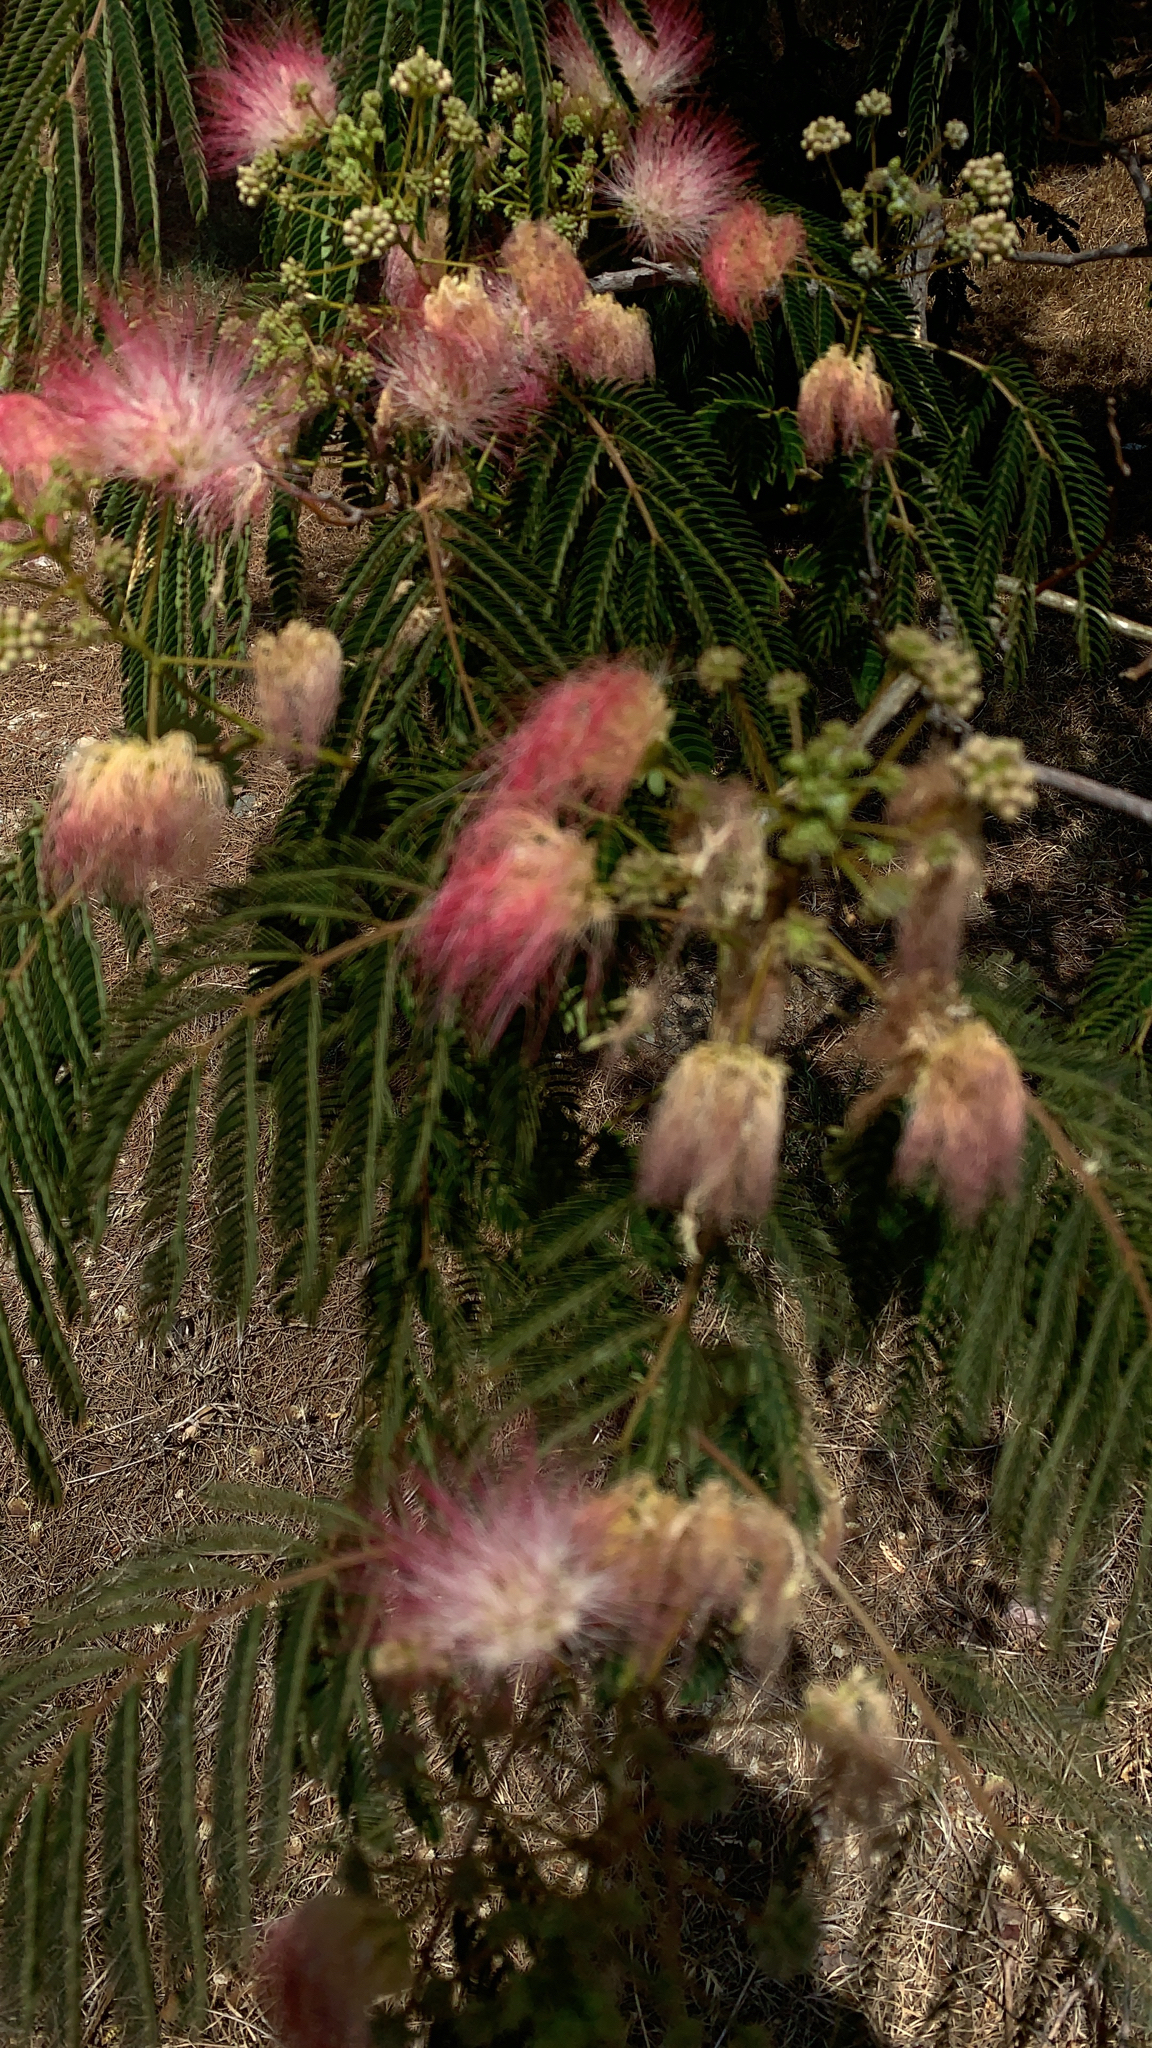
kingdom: Plantae
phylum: Tracheophyta
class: Magnoliopsida
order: Fabales
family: Fabaceae
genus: Albizia
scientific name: Albizia julibrissin
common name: Silktree
